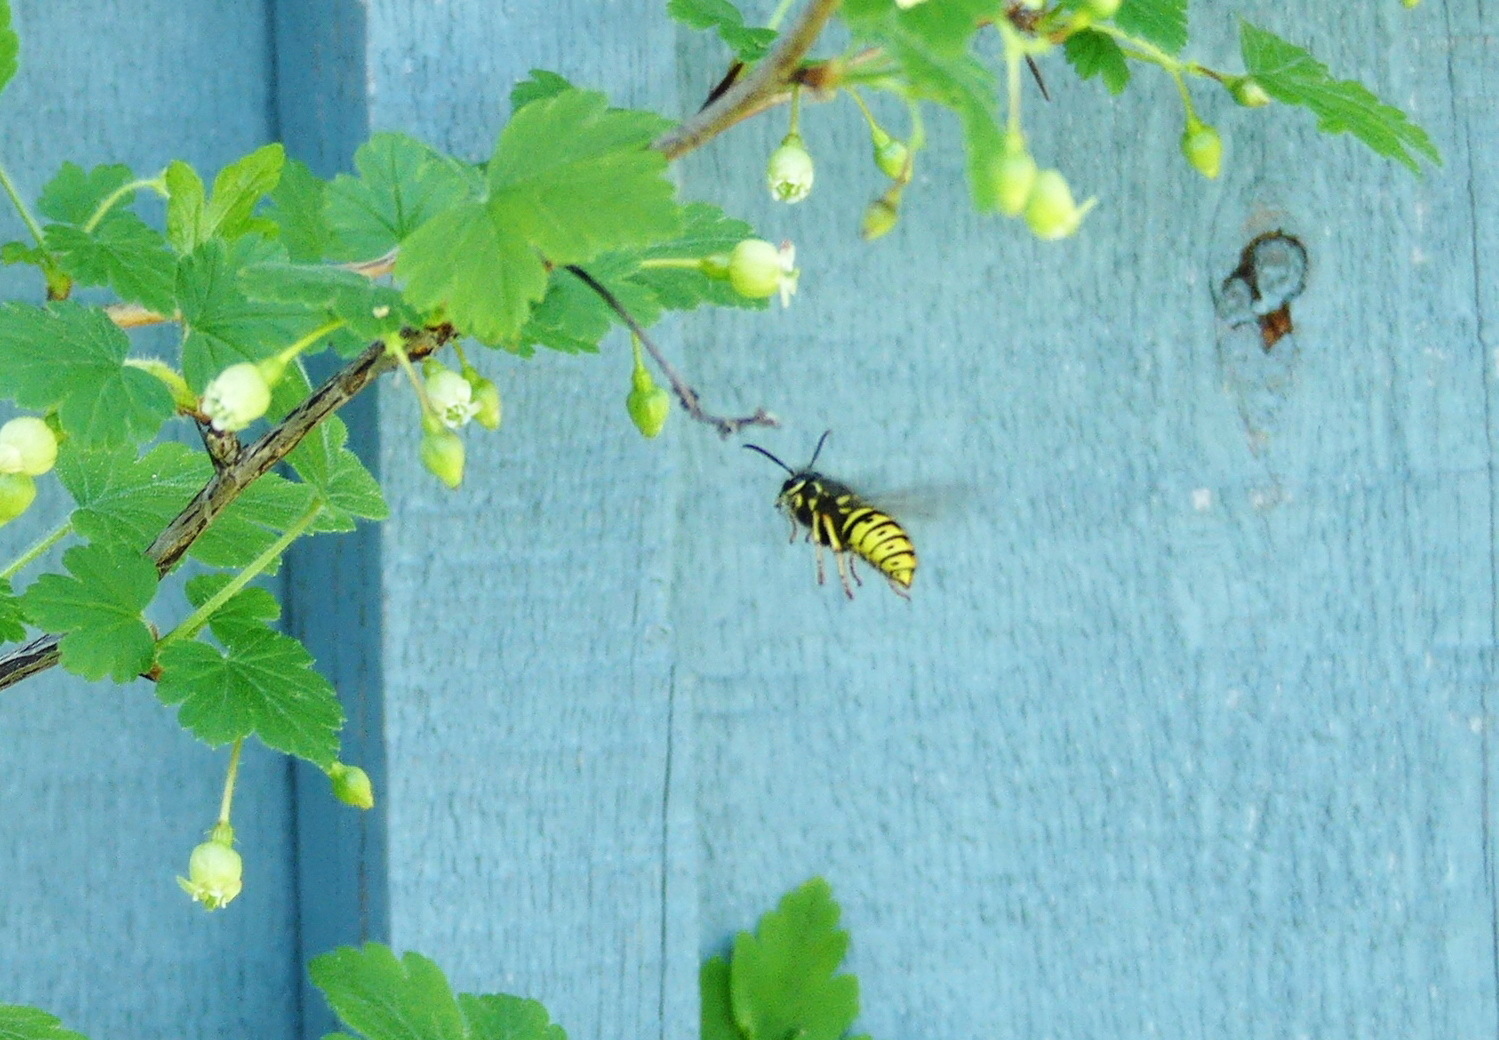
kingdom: Animalia
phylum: Arthropoda
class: Insecta
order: Hymenoptera
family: Vespidae
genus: Dolichovespula
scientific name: Dolichovespula arenaria
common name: Aerial yellowjacket
